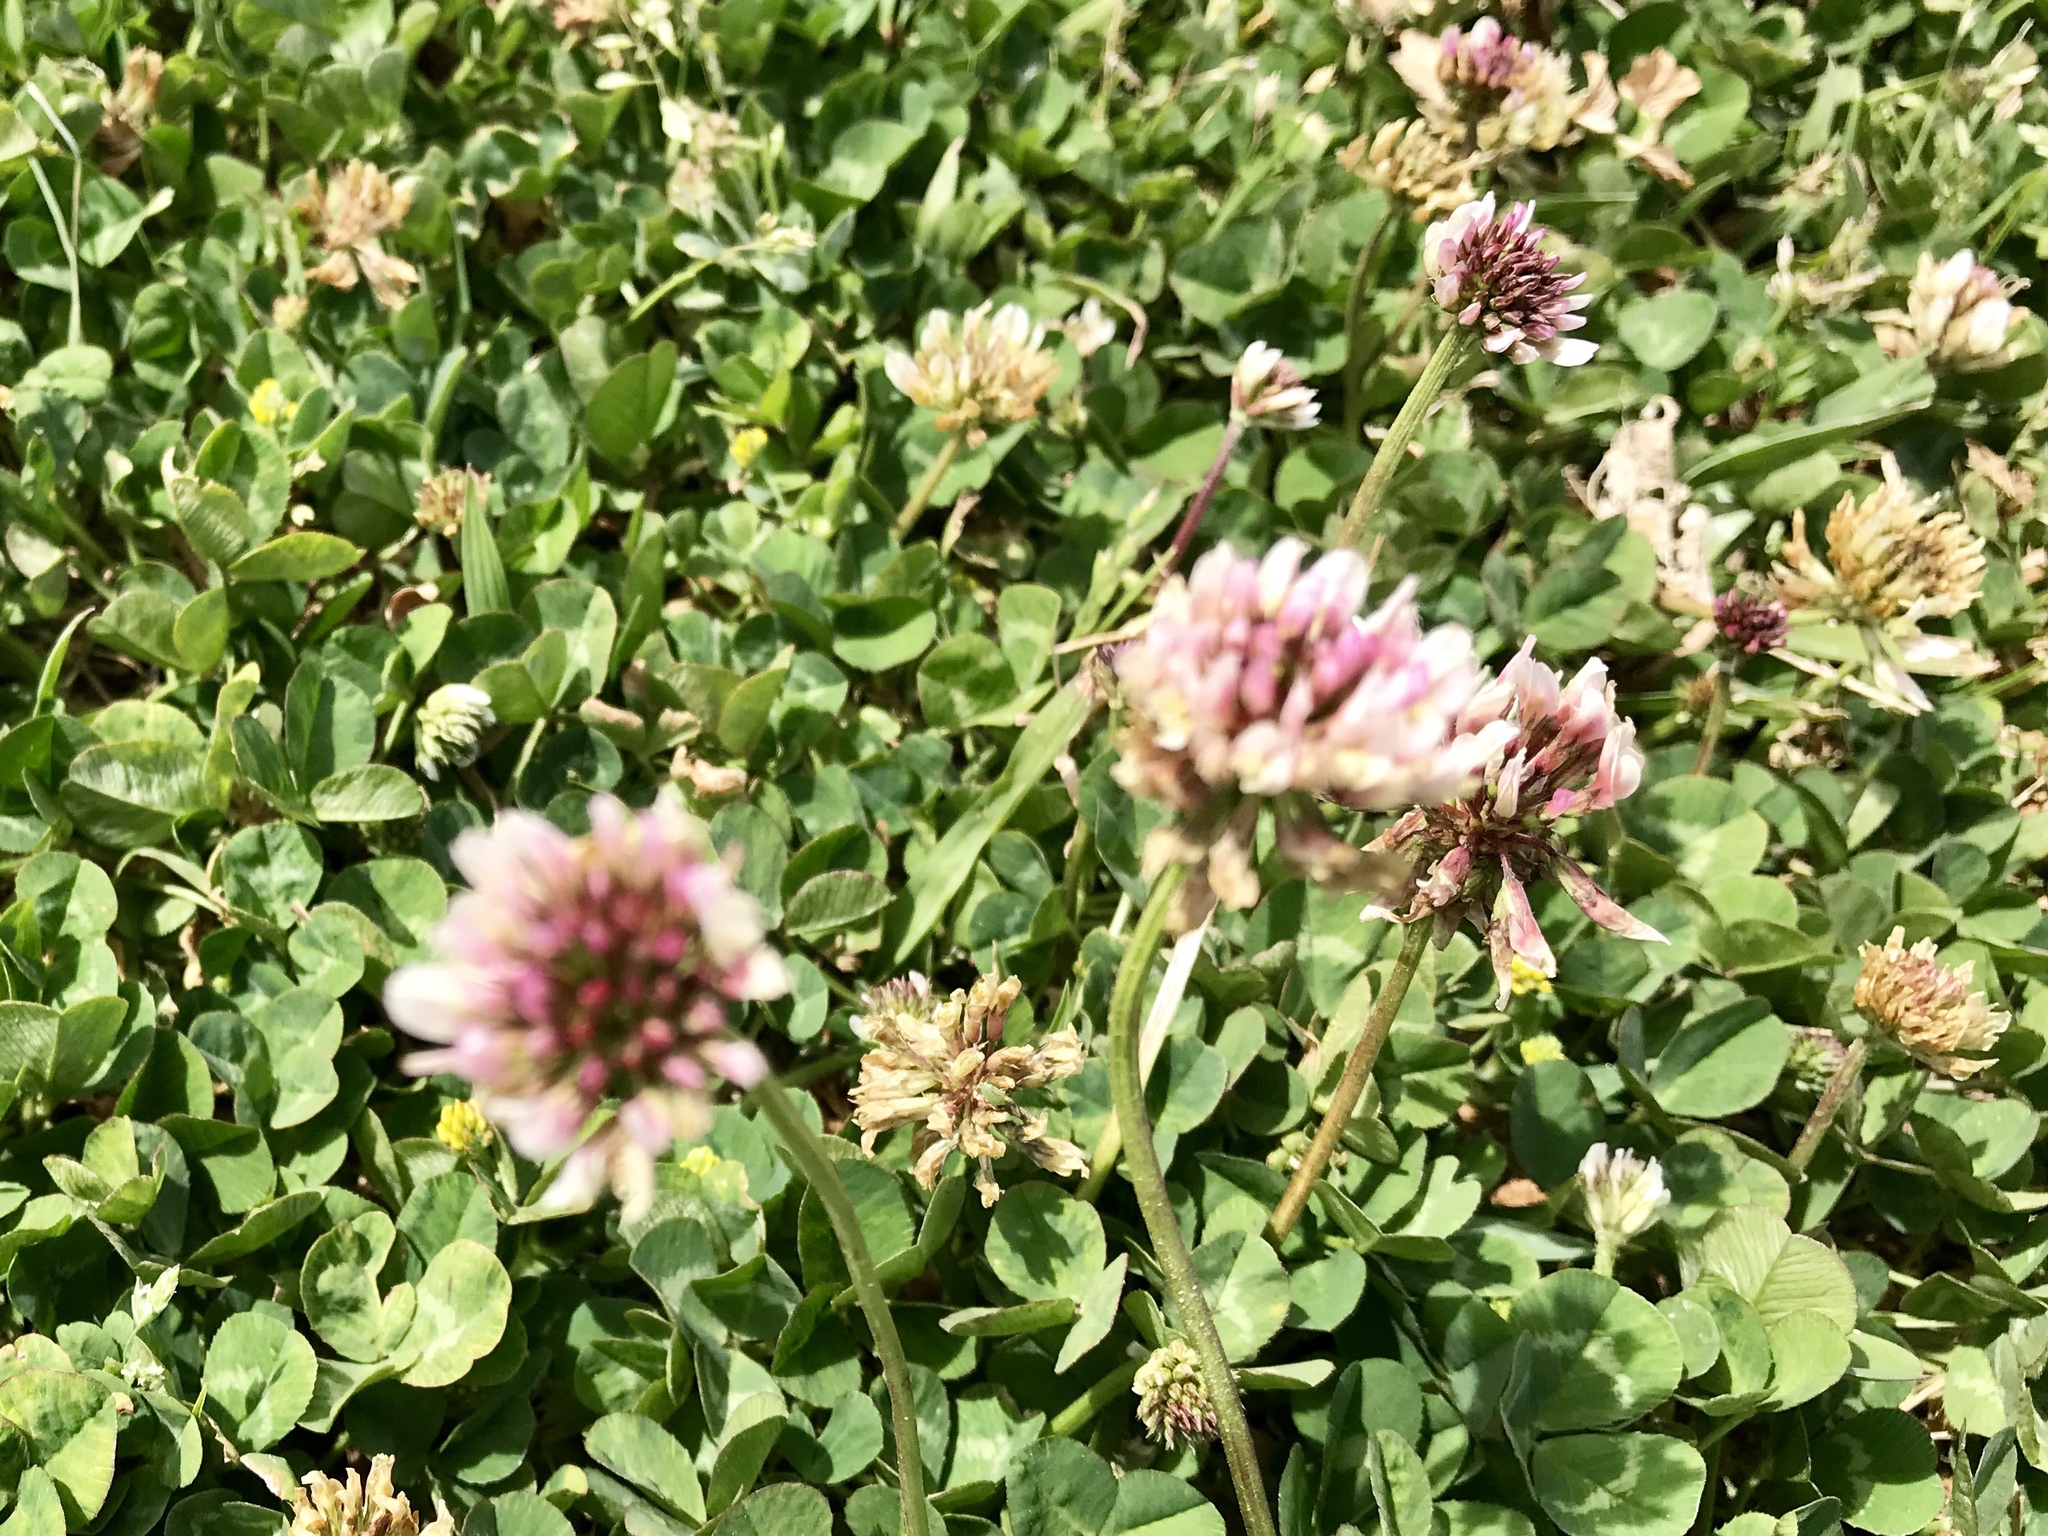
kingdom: Plantae
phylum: Tracheophyta
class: Magnoliopsida
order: Fabales
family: Fabaceae
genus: Trifolium
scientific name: Trifolium repens
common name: White clover
